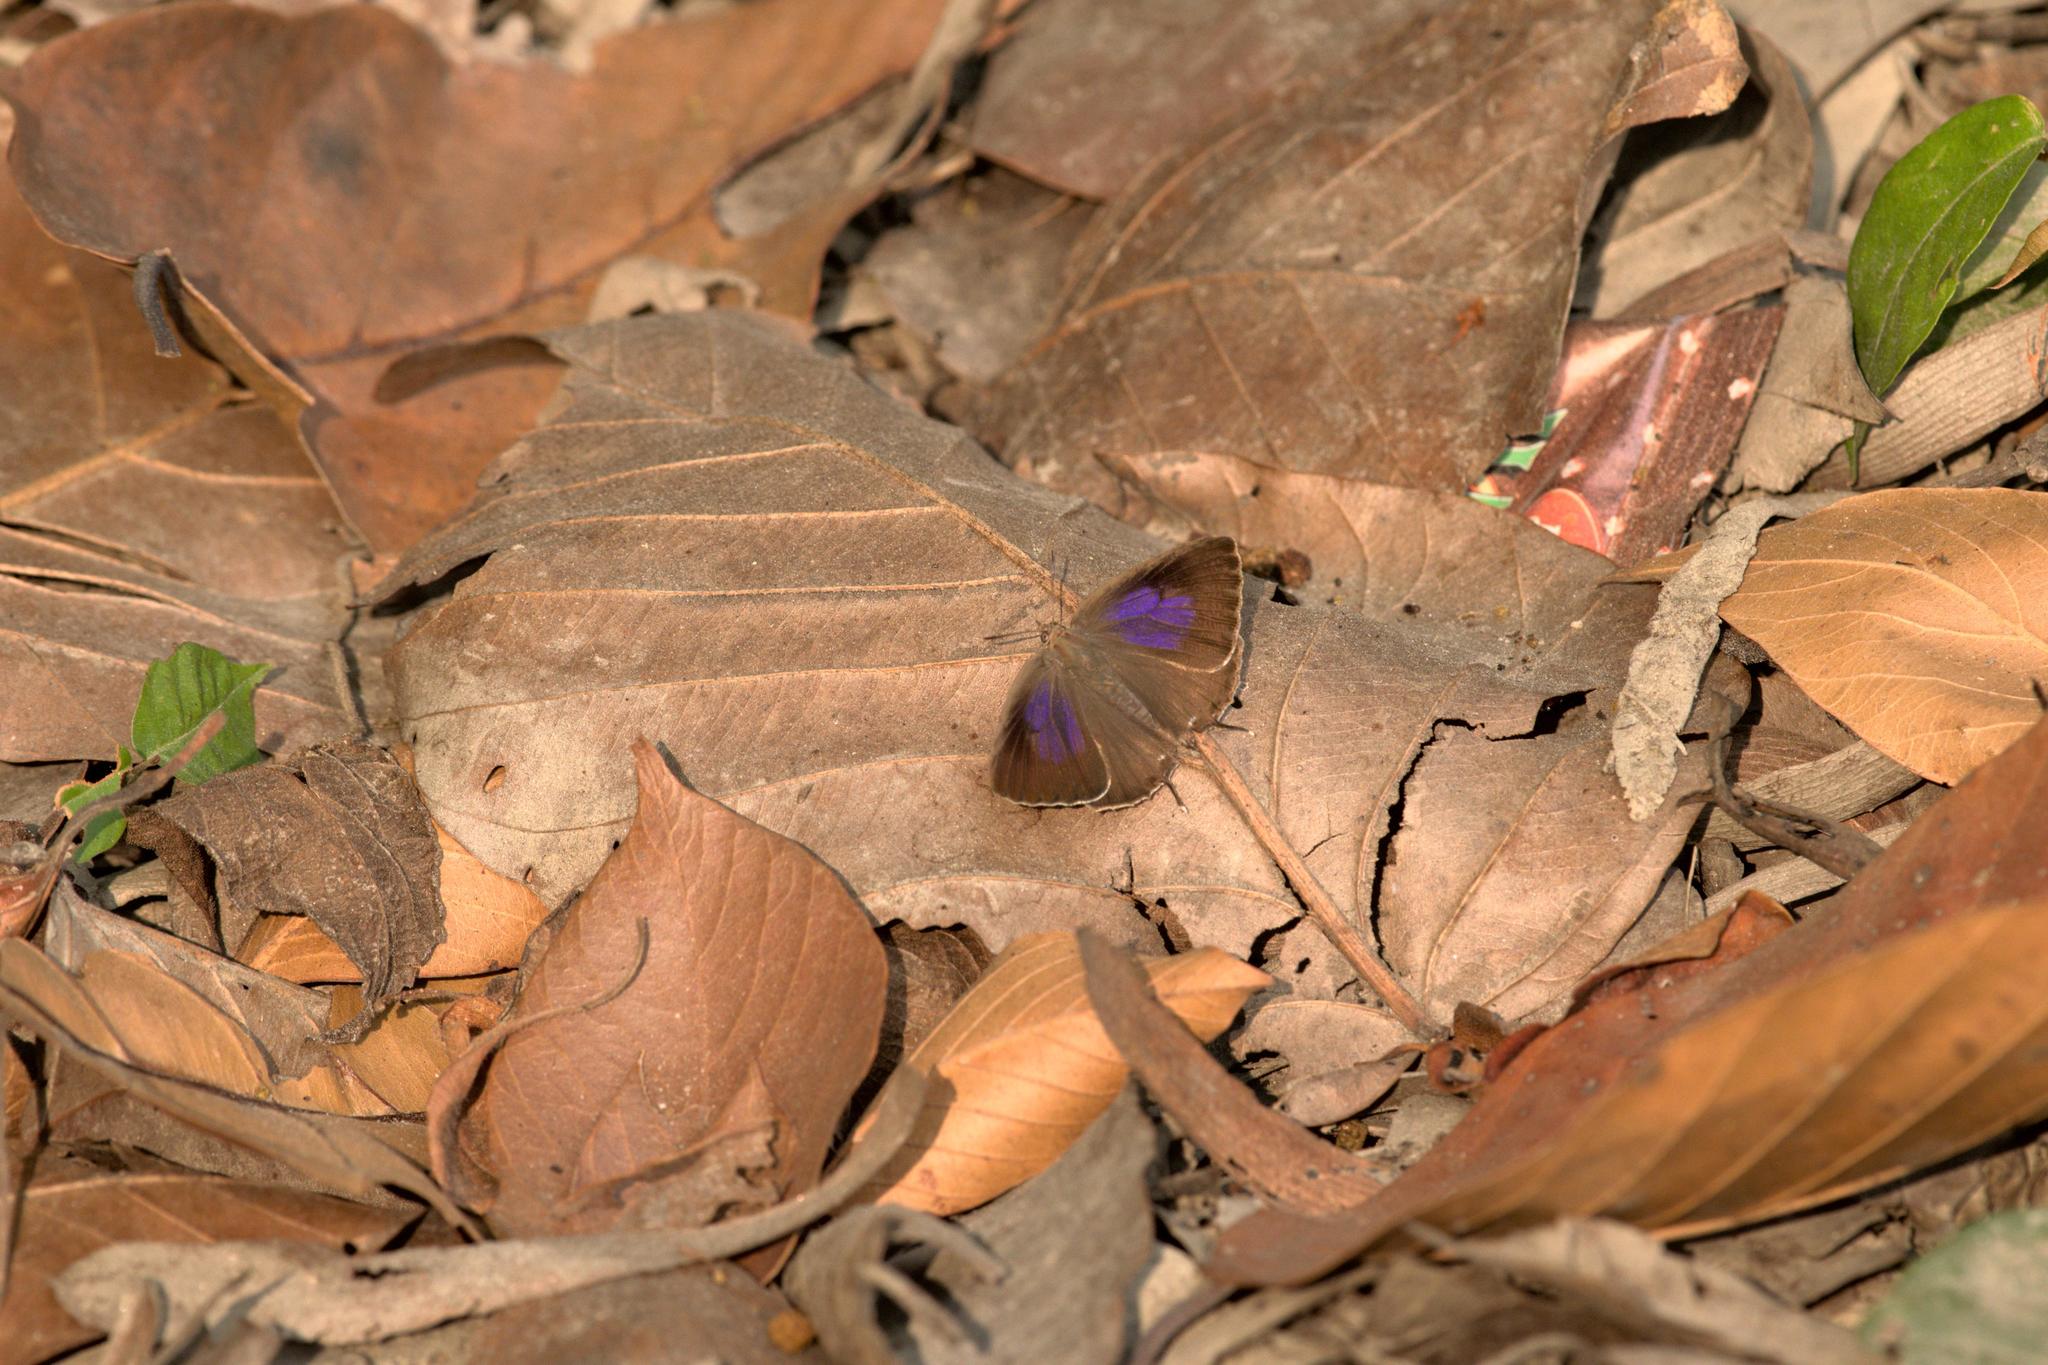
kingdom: Animalia
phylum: Arthropoda
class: Insecta
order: Lepidoptera
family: Lycaenidae
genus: Arhopala
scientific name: Arhopala atrax
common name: Indian oakblue
